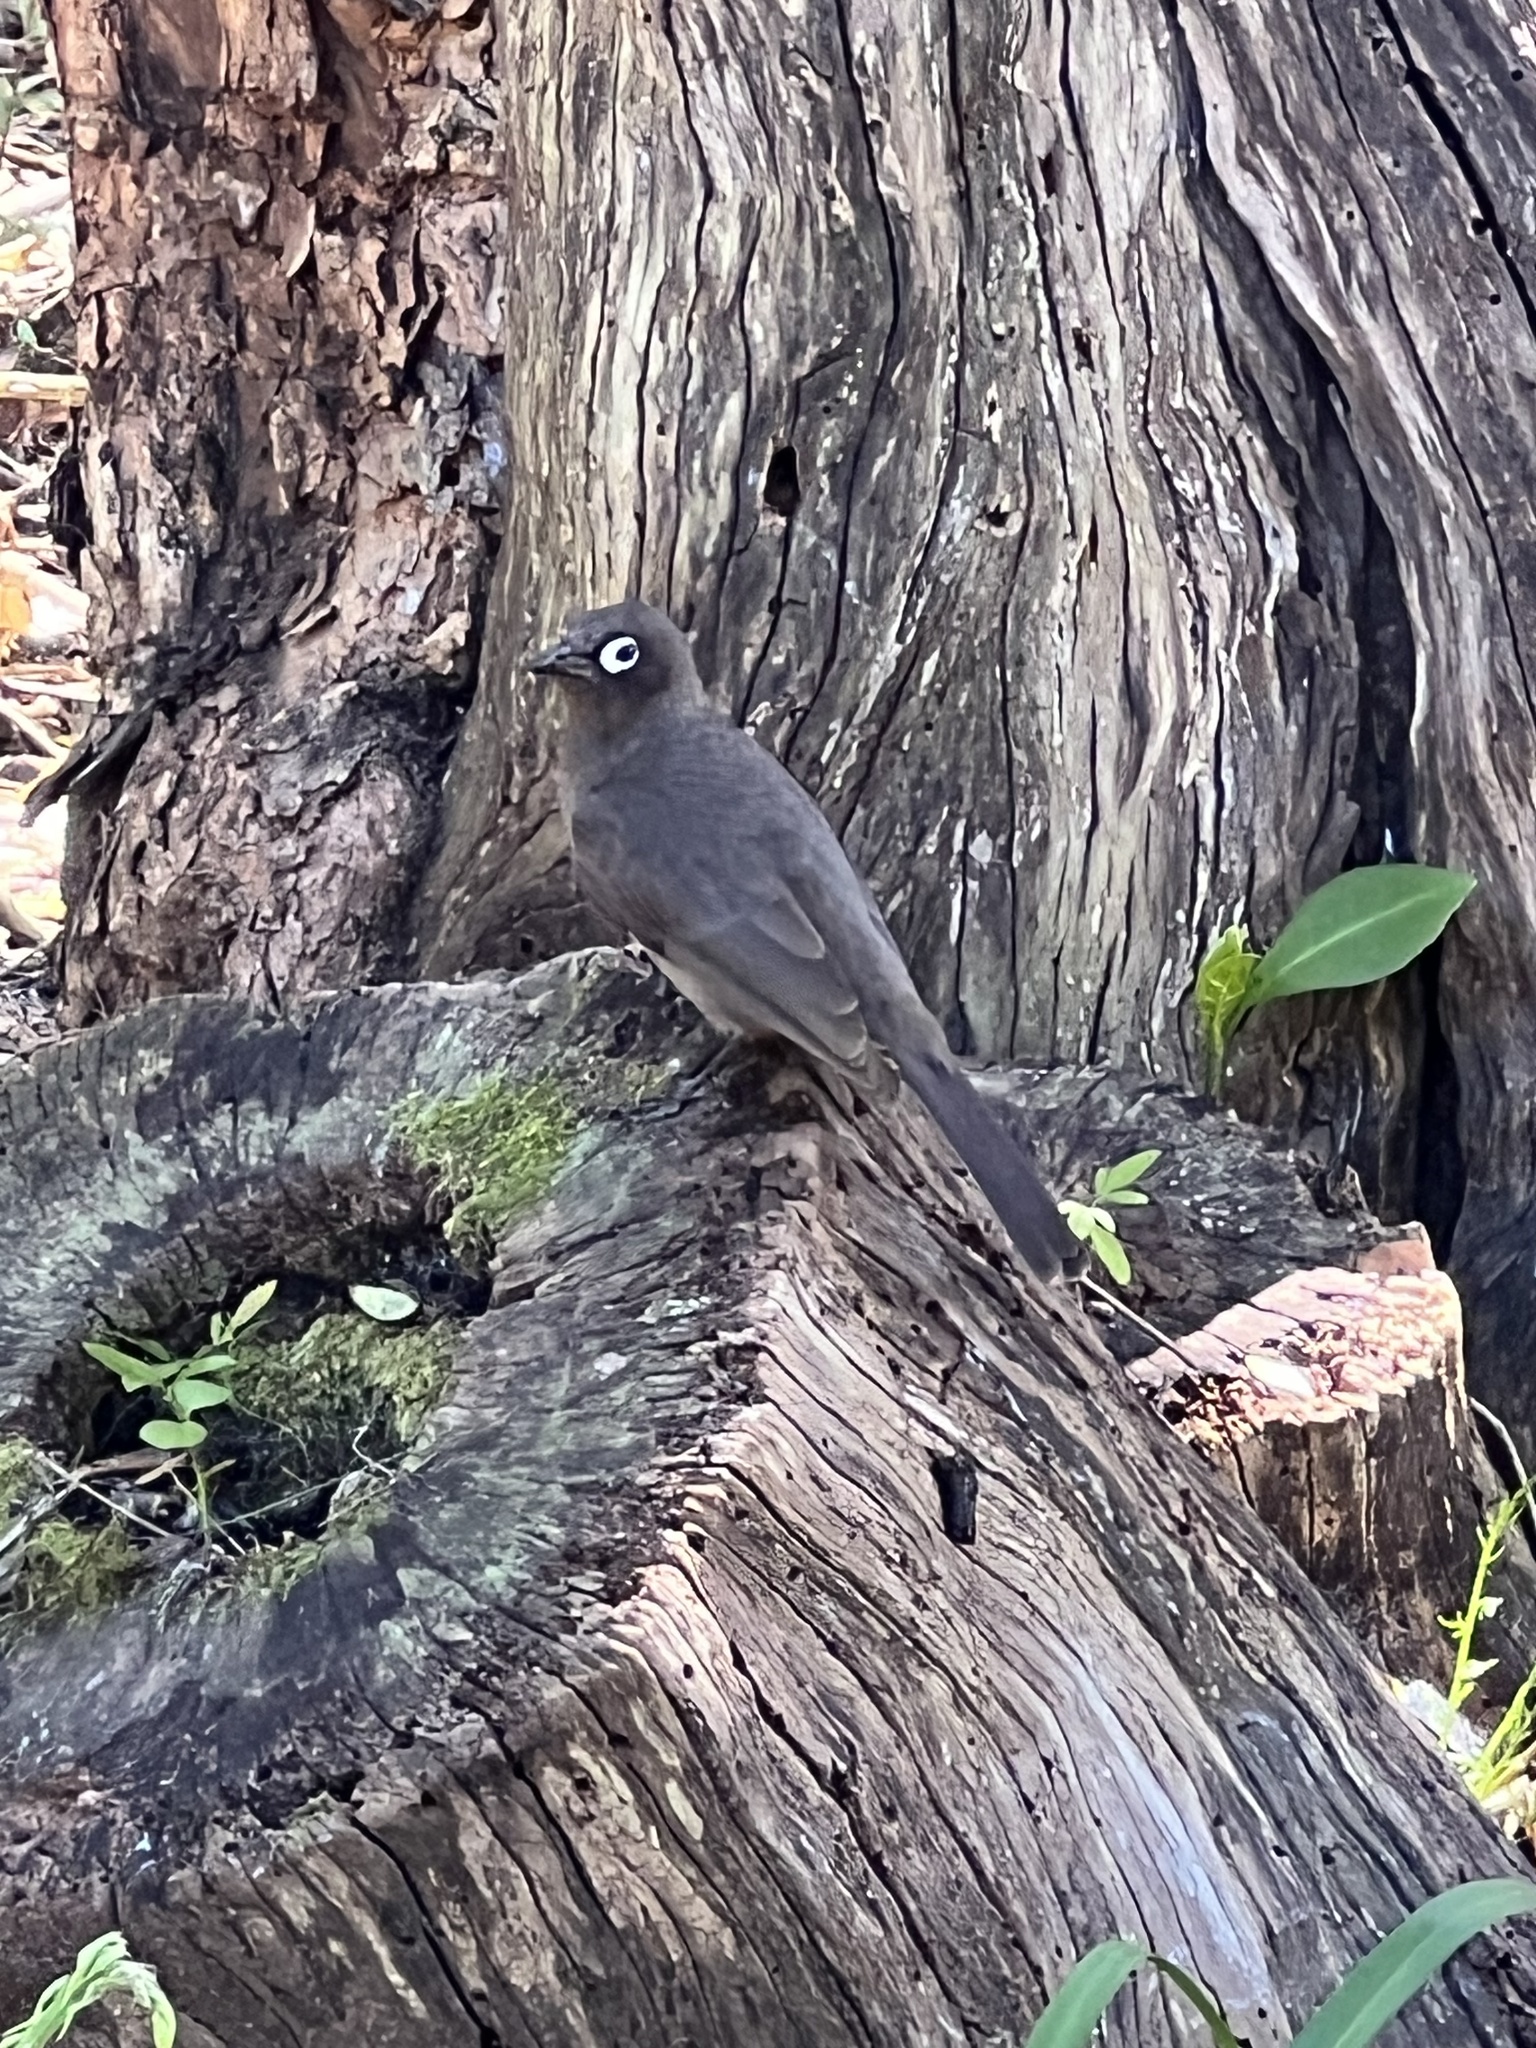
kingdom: Animalia
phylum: Chordata
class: Aves
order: Passeriformes
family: Pycnonotidae
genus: Pycnonotus
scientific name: Pycnonotus capensis
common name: Cape bulbul
